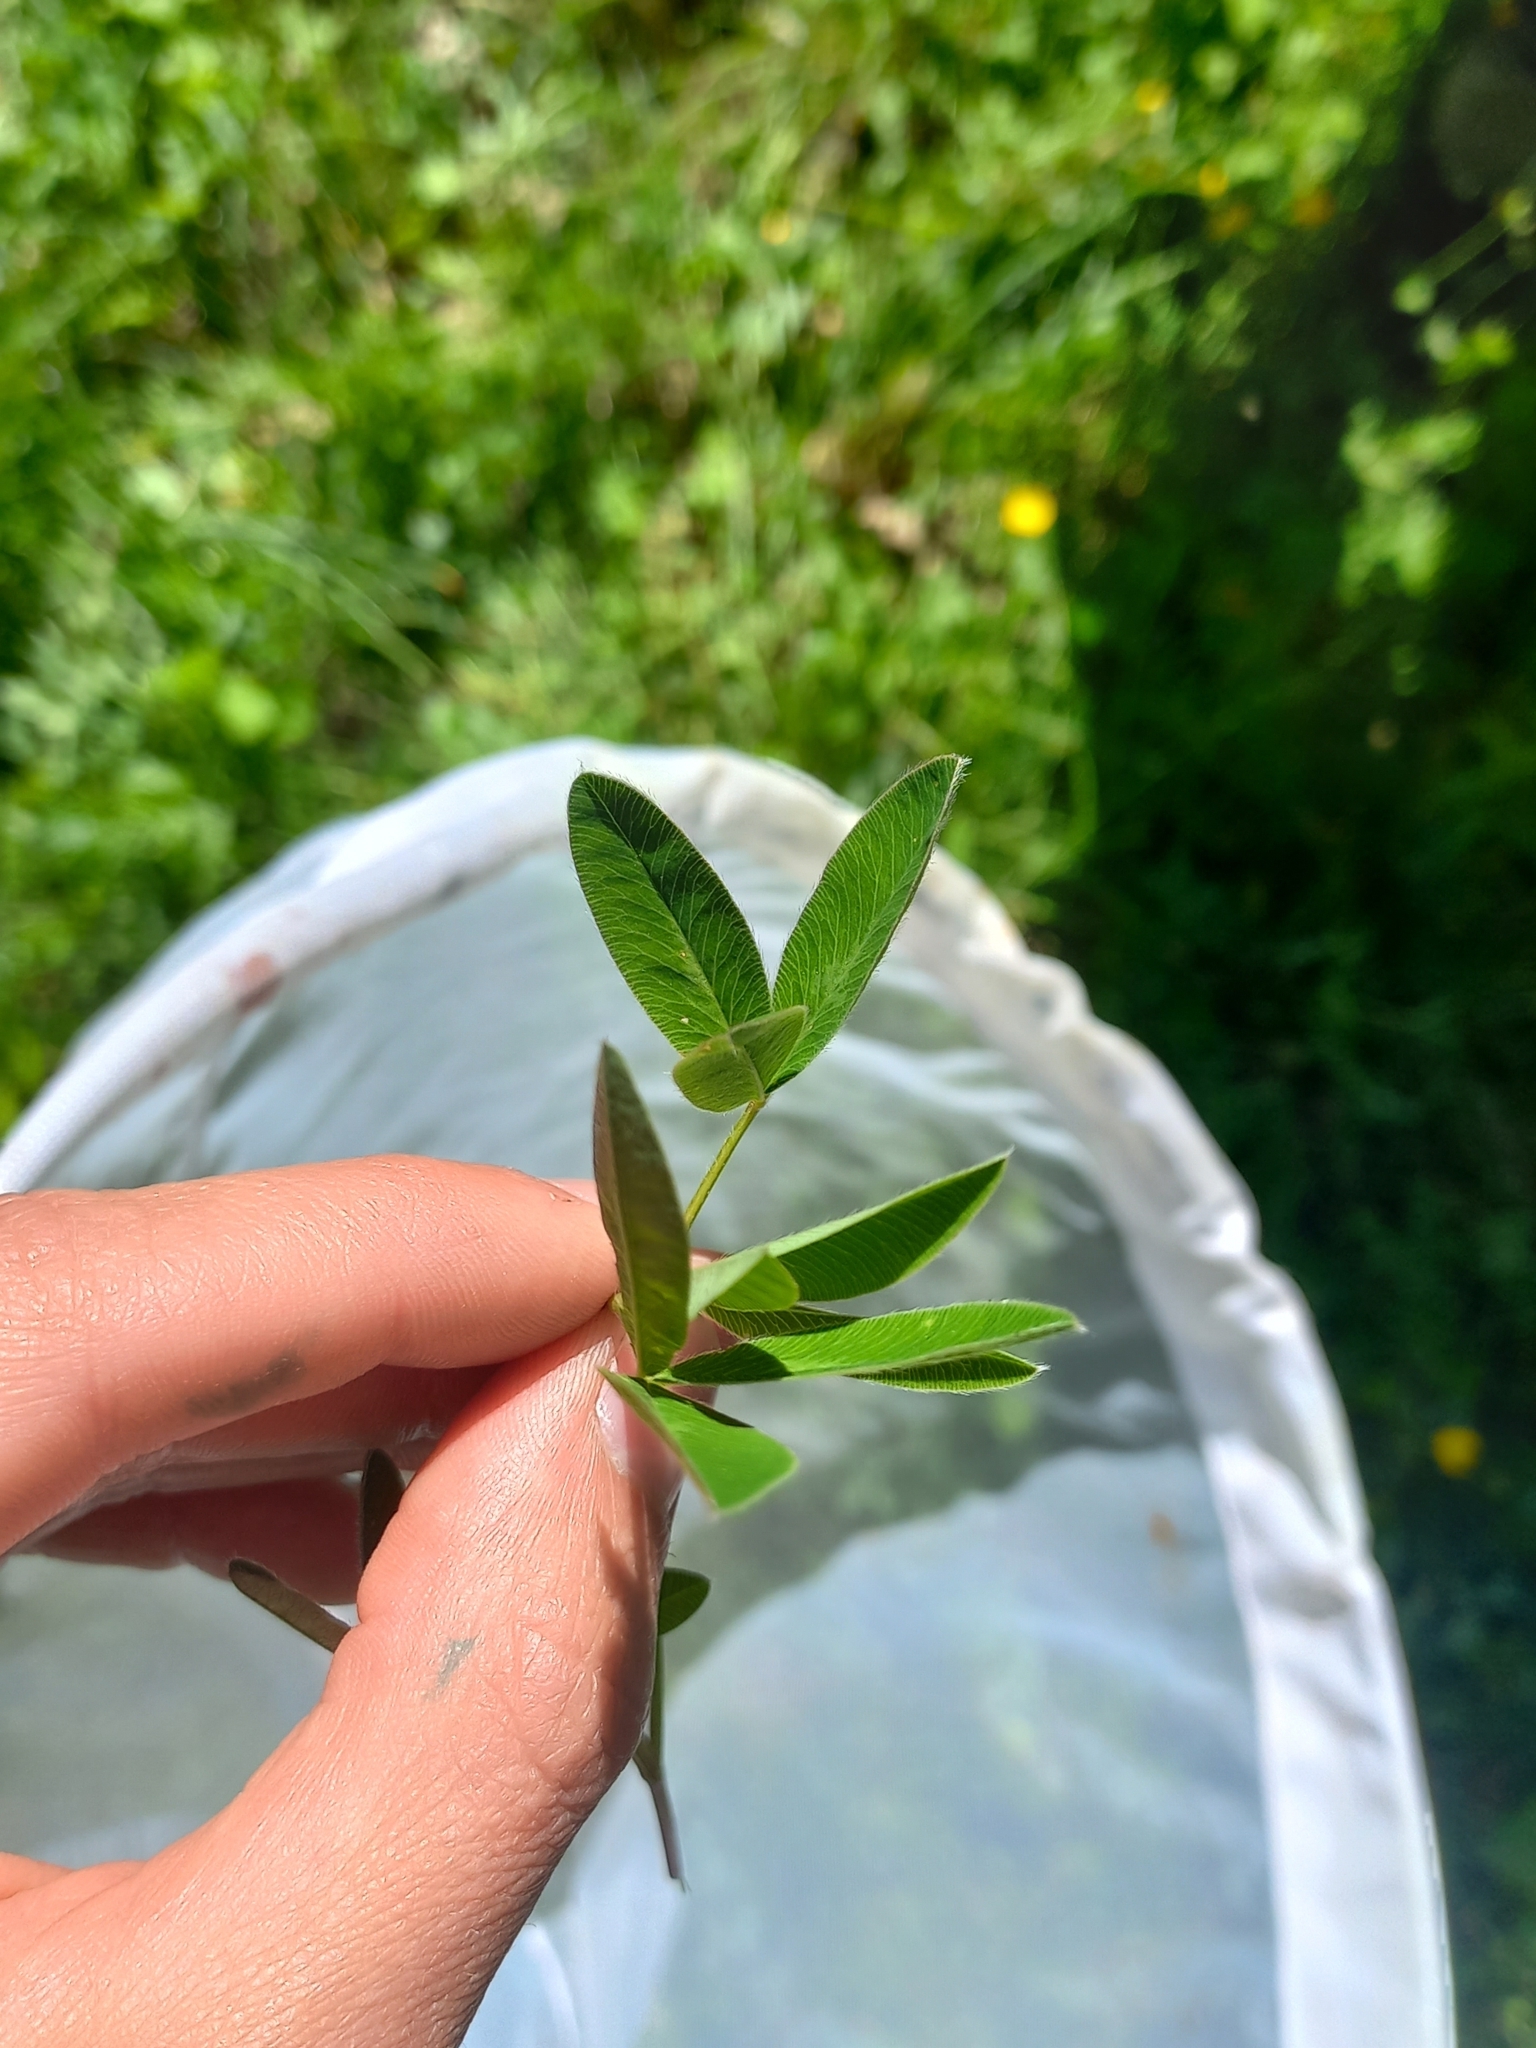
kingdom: Plantae
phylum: Tracheophyta
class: Magnoliopsida
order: Fabales
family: Fabaceae
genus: Trifolium
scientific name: Trifolium medium
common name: Zigzag clover
